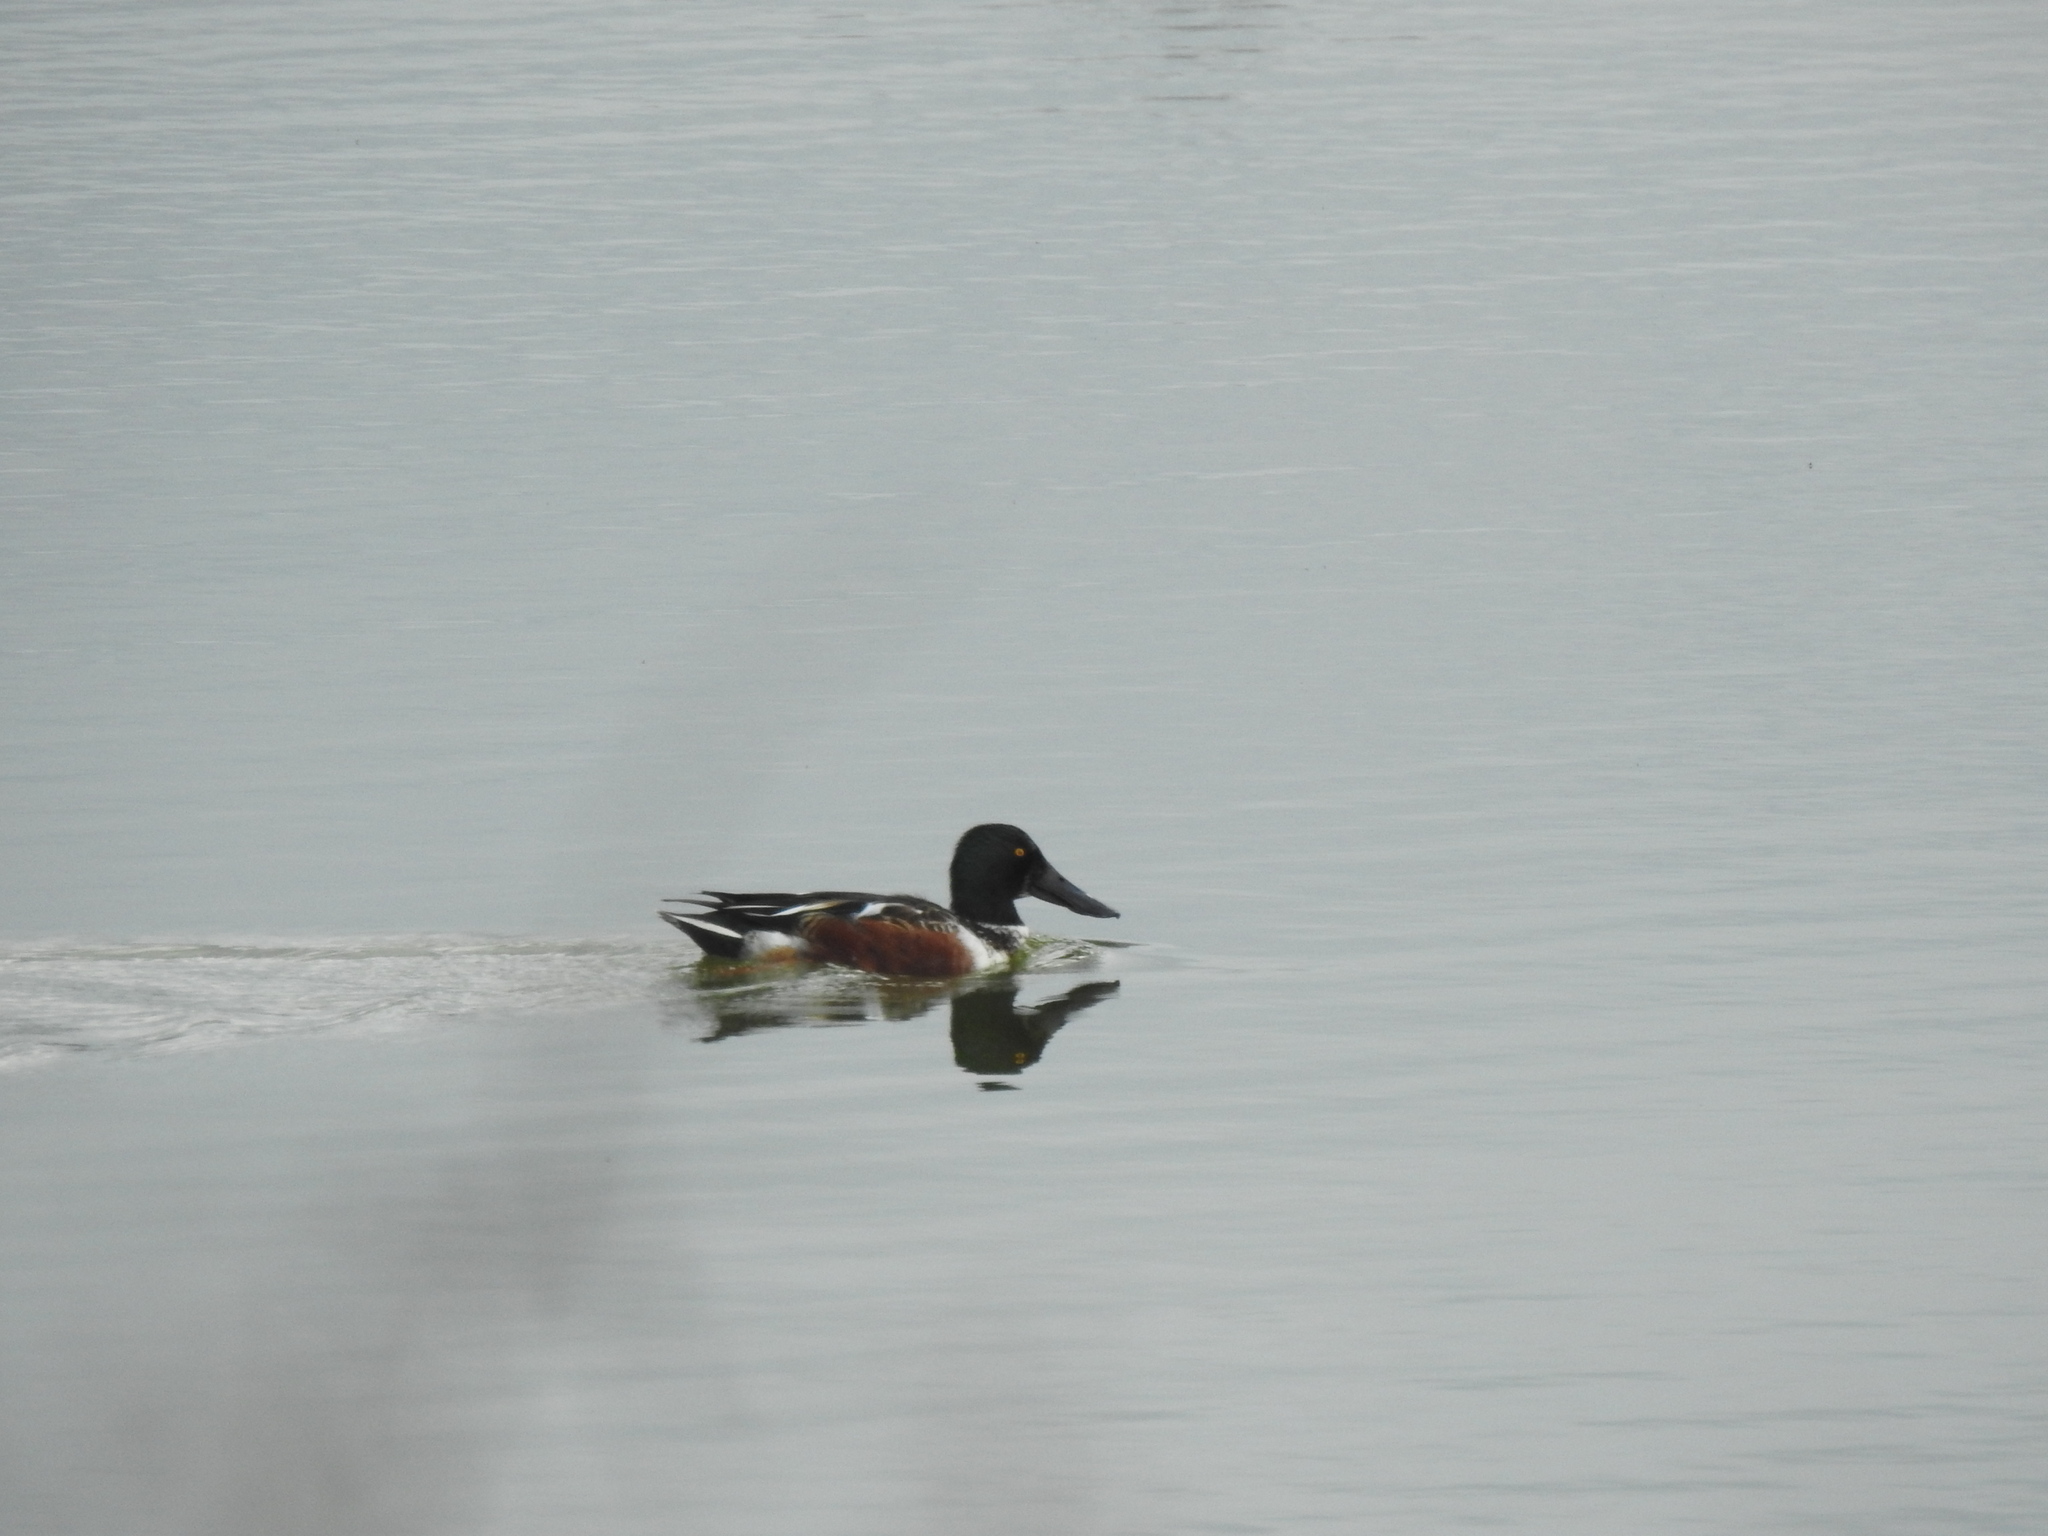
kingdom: Animalia
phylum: Chordata
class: Aves
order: Anseriformes
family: Anatidae
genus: Spatula
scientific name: Spatula clypeata
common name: Northern shoveler
